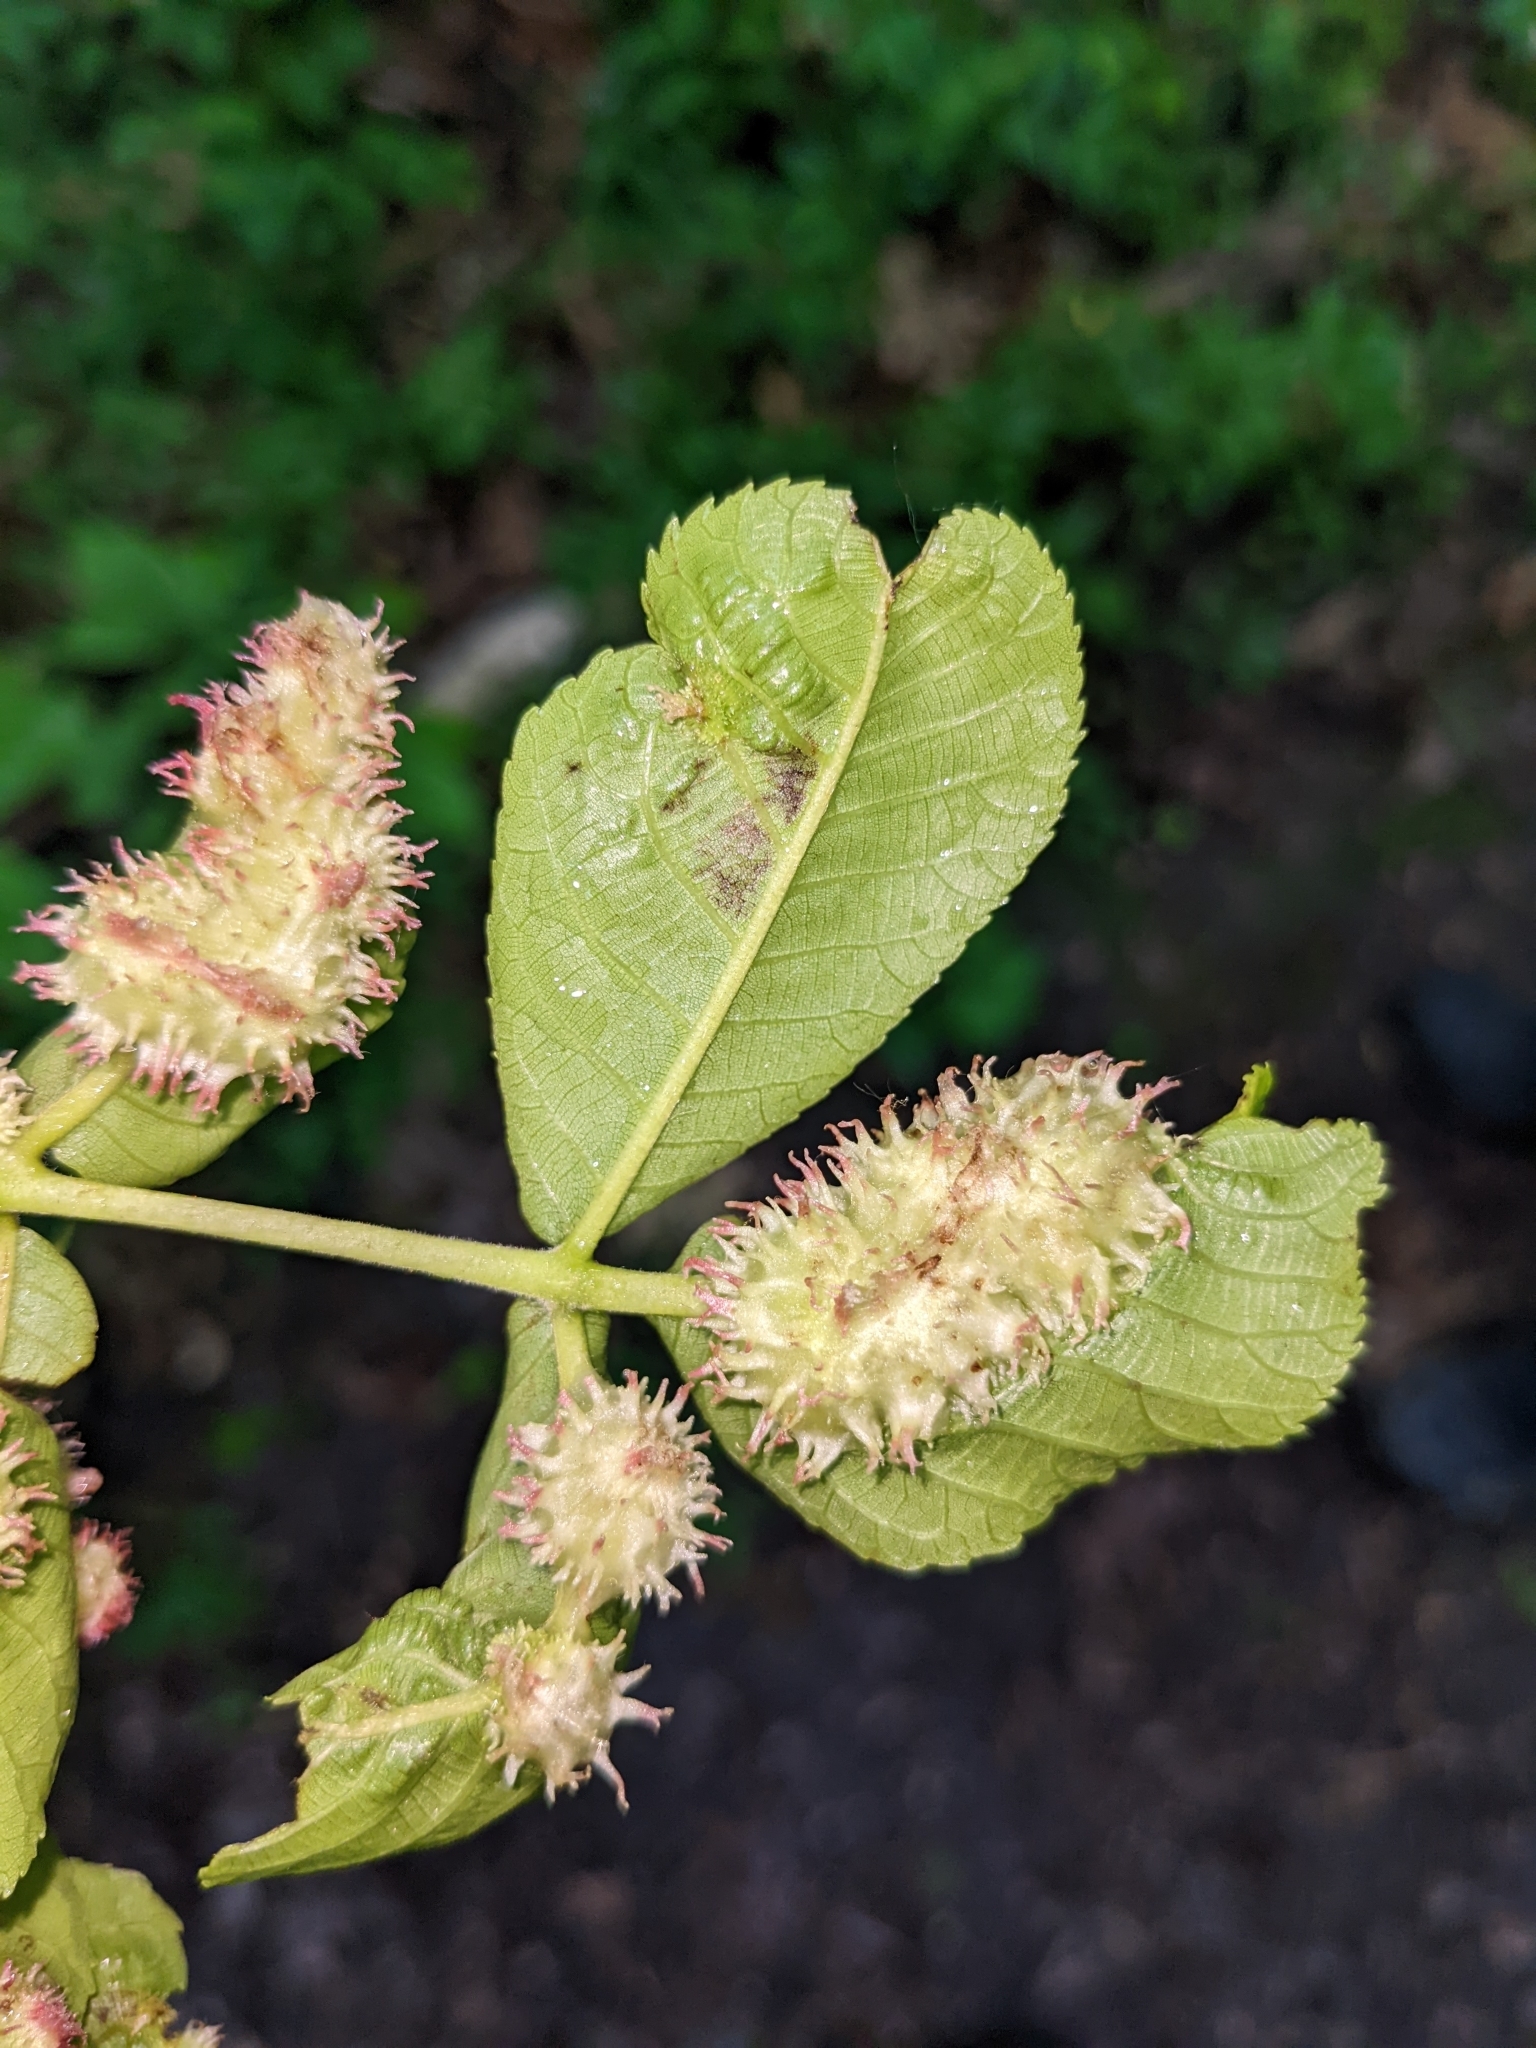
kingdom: Animalia
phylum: Arthropoda
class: Insecta
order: Hemiptera
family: Phylloxeridae
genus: Phylloxera
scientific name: Phylloxera spinosa
